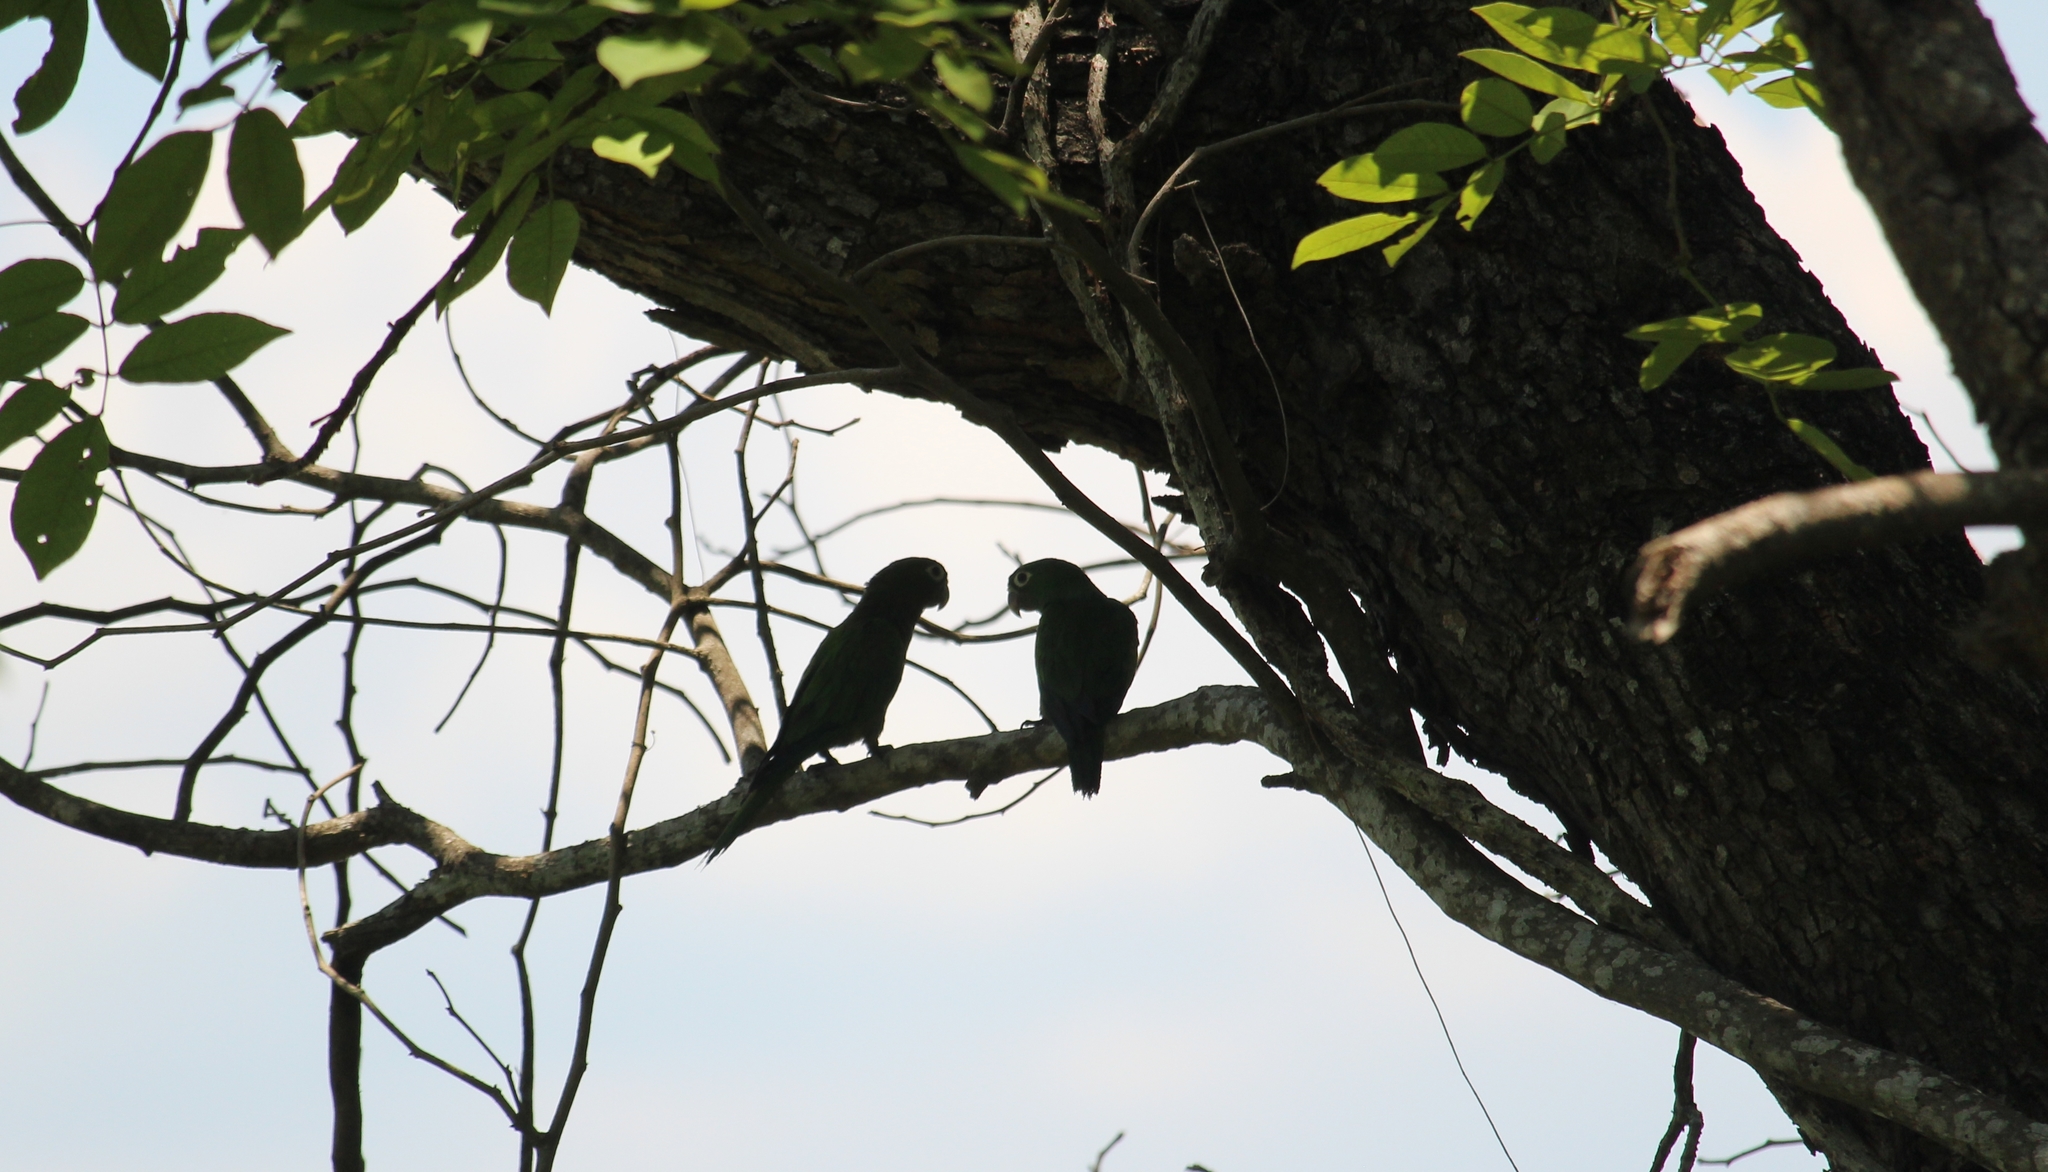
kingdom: Animalia
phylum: Chordata
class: Aves
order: Psittaciformes
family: Psittacidae
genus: Aratinga
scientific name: Aratinga nana
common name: Olive-throated parakeet
